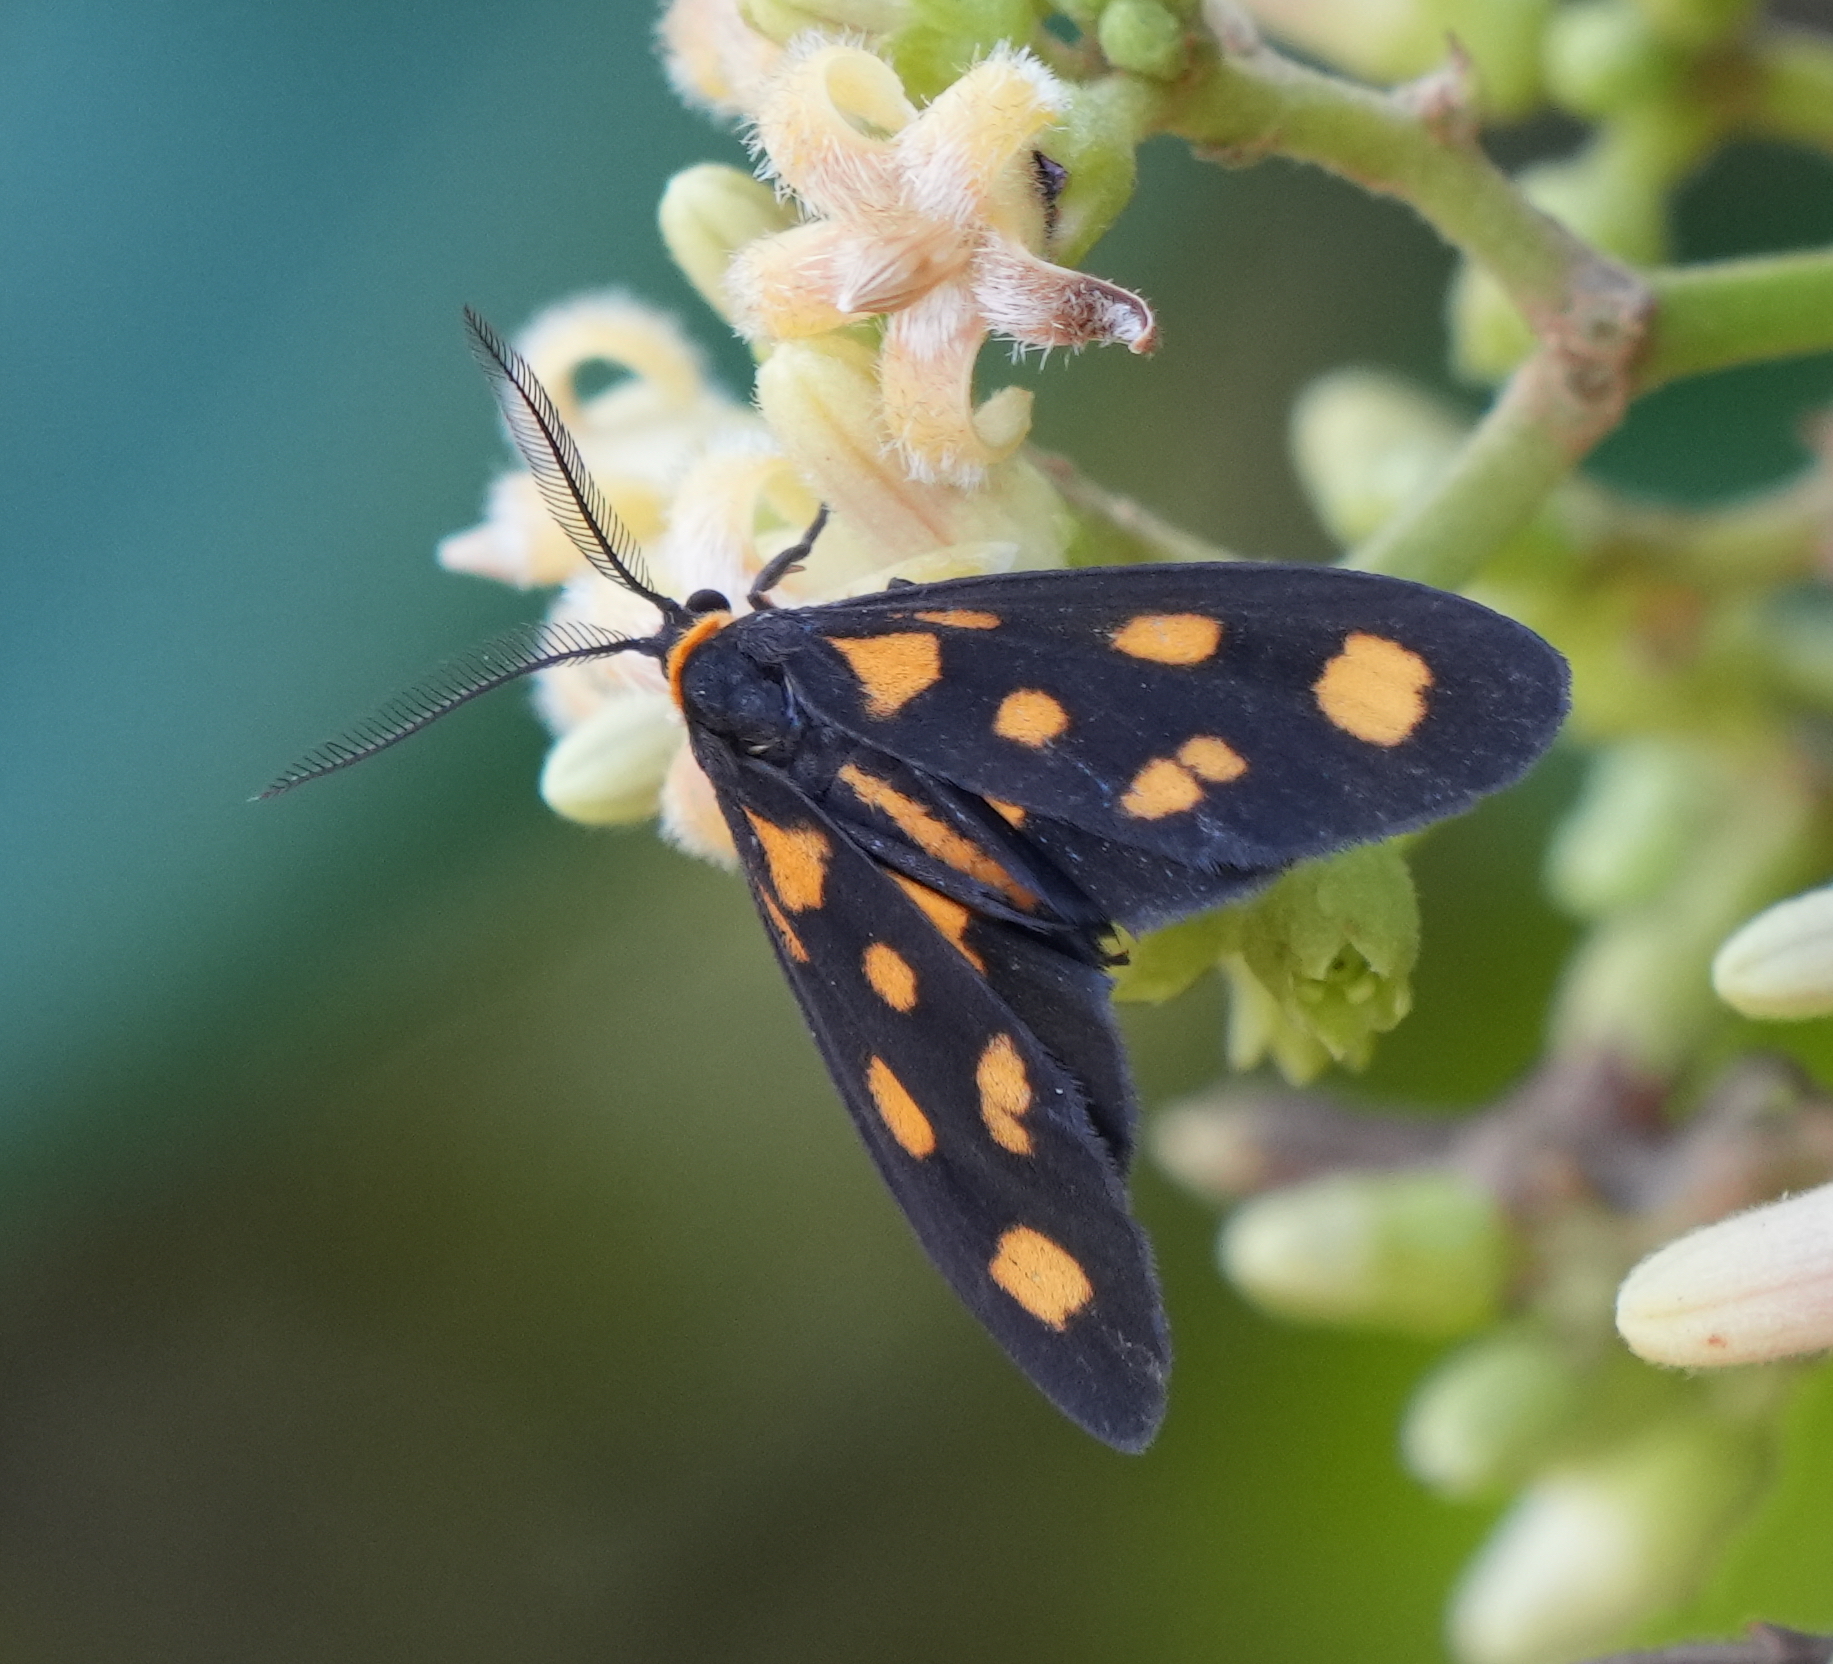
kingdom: Animalia
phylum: Arthropoda
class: Insecta
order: Lepidoptera
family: Erebidae
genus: Asura
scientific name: Asura cervicalis
